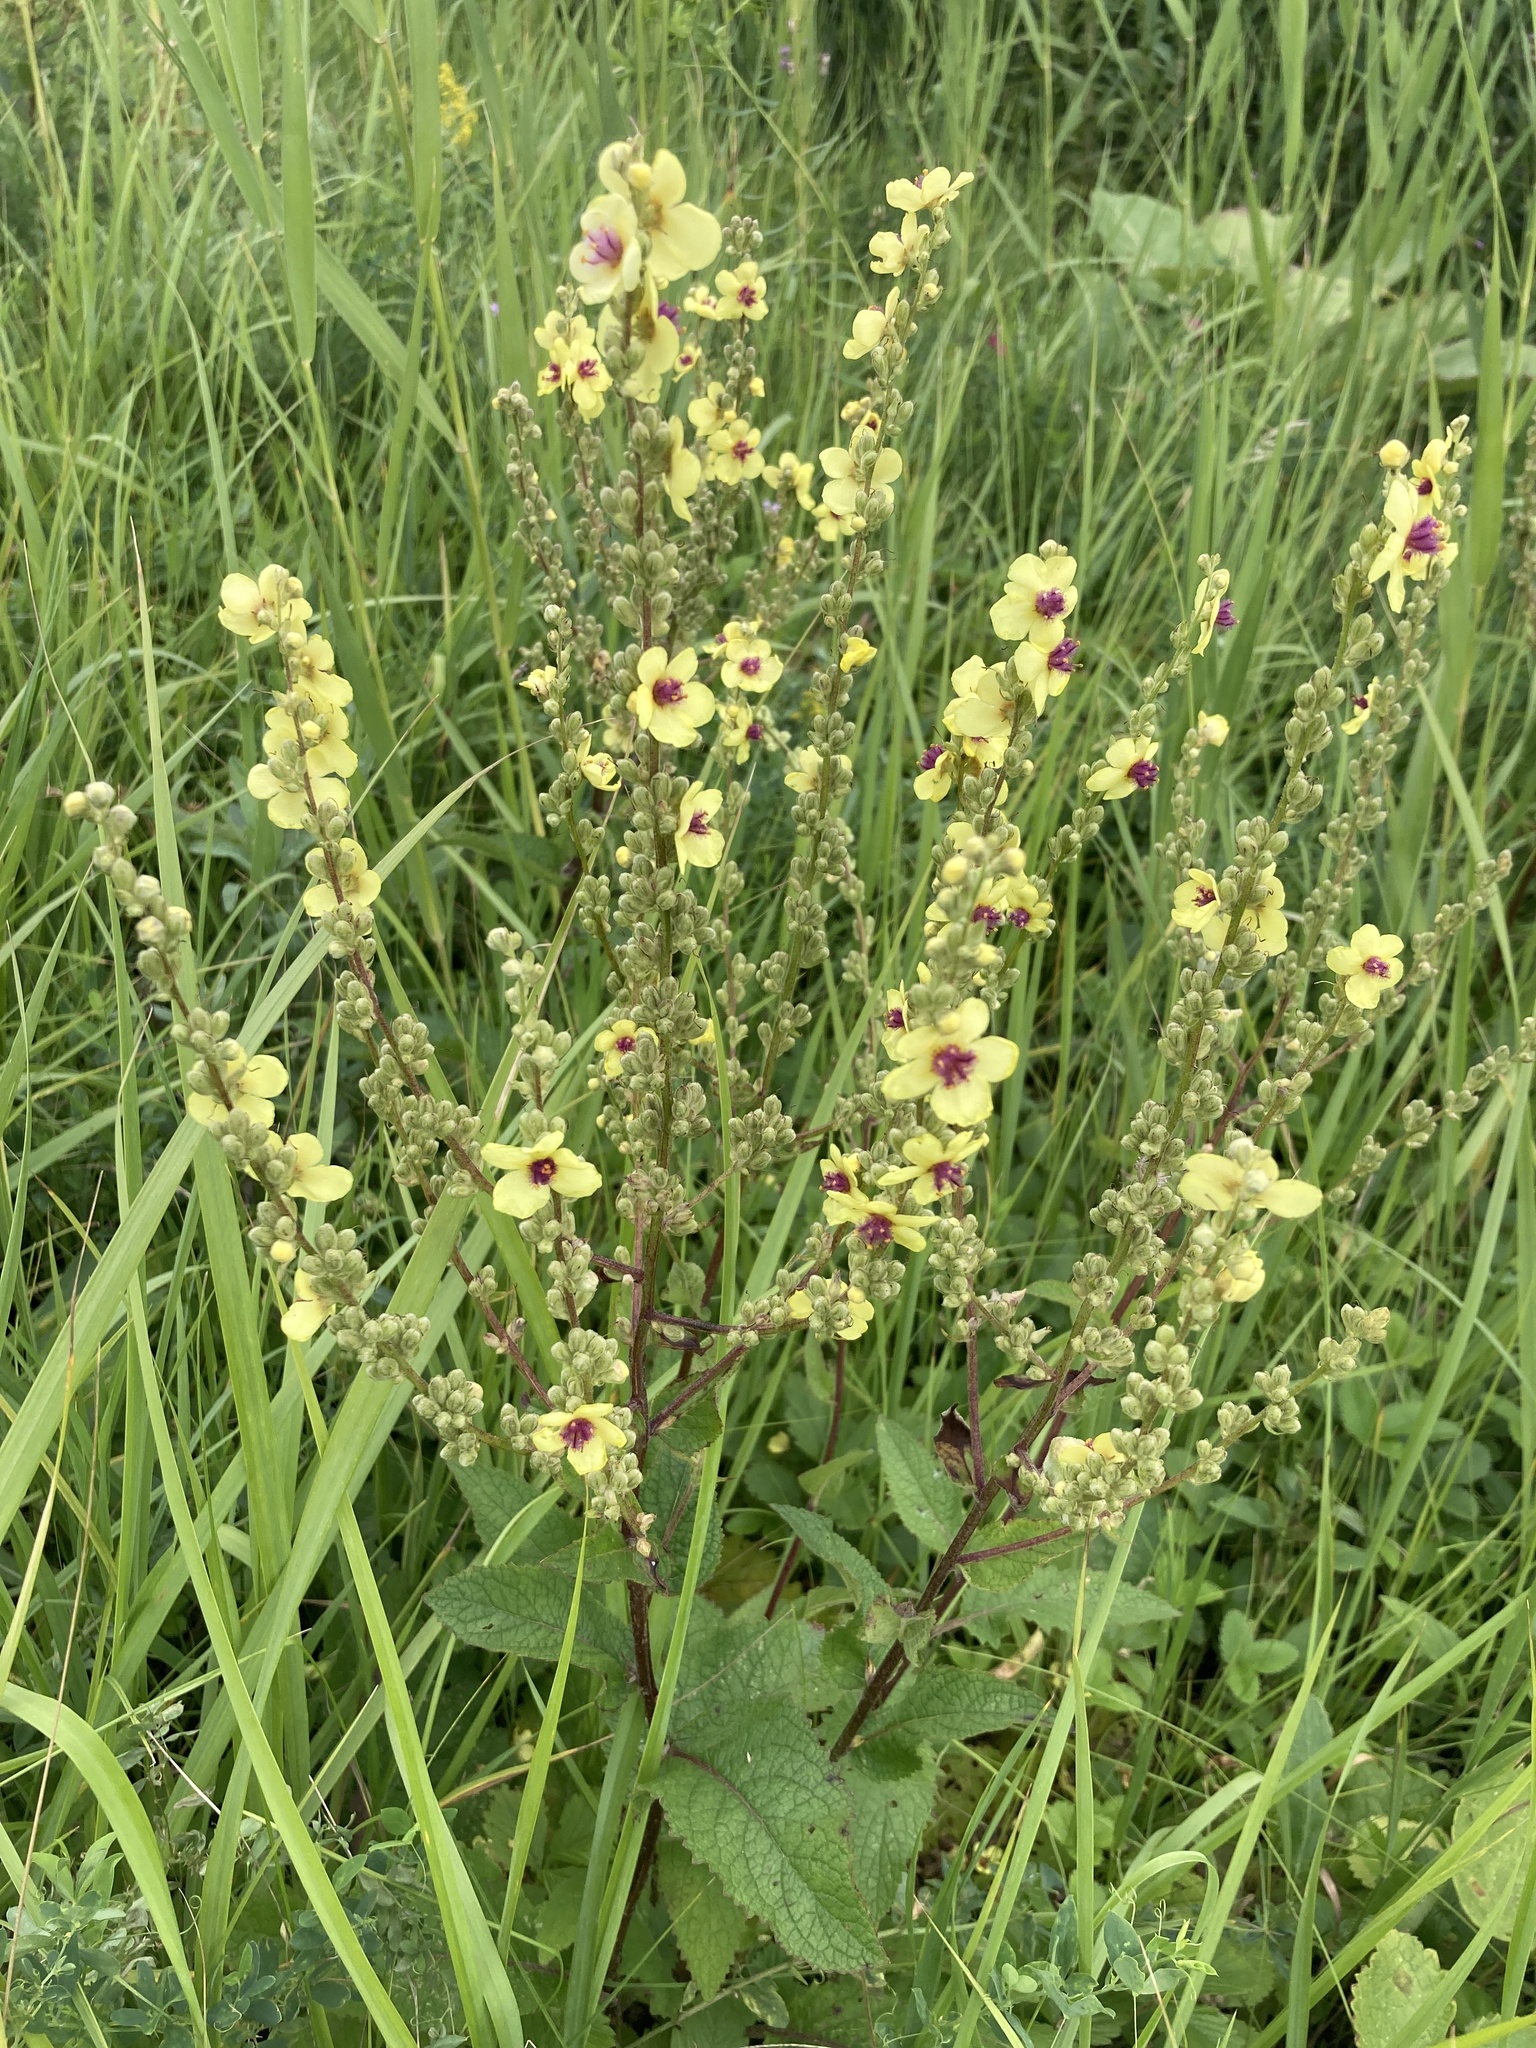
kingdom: Plantae
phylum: Tracheophyta
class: Magnoliopsida
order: Lamiales
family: Scrophulariaceae
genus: Verbascum
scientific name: Verbascum chaixii
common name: Nettle-leaved mullein
